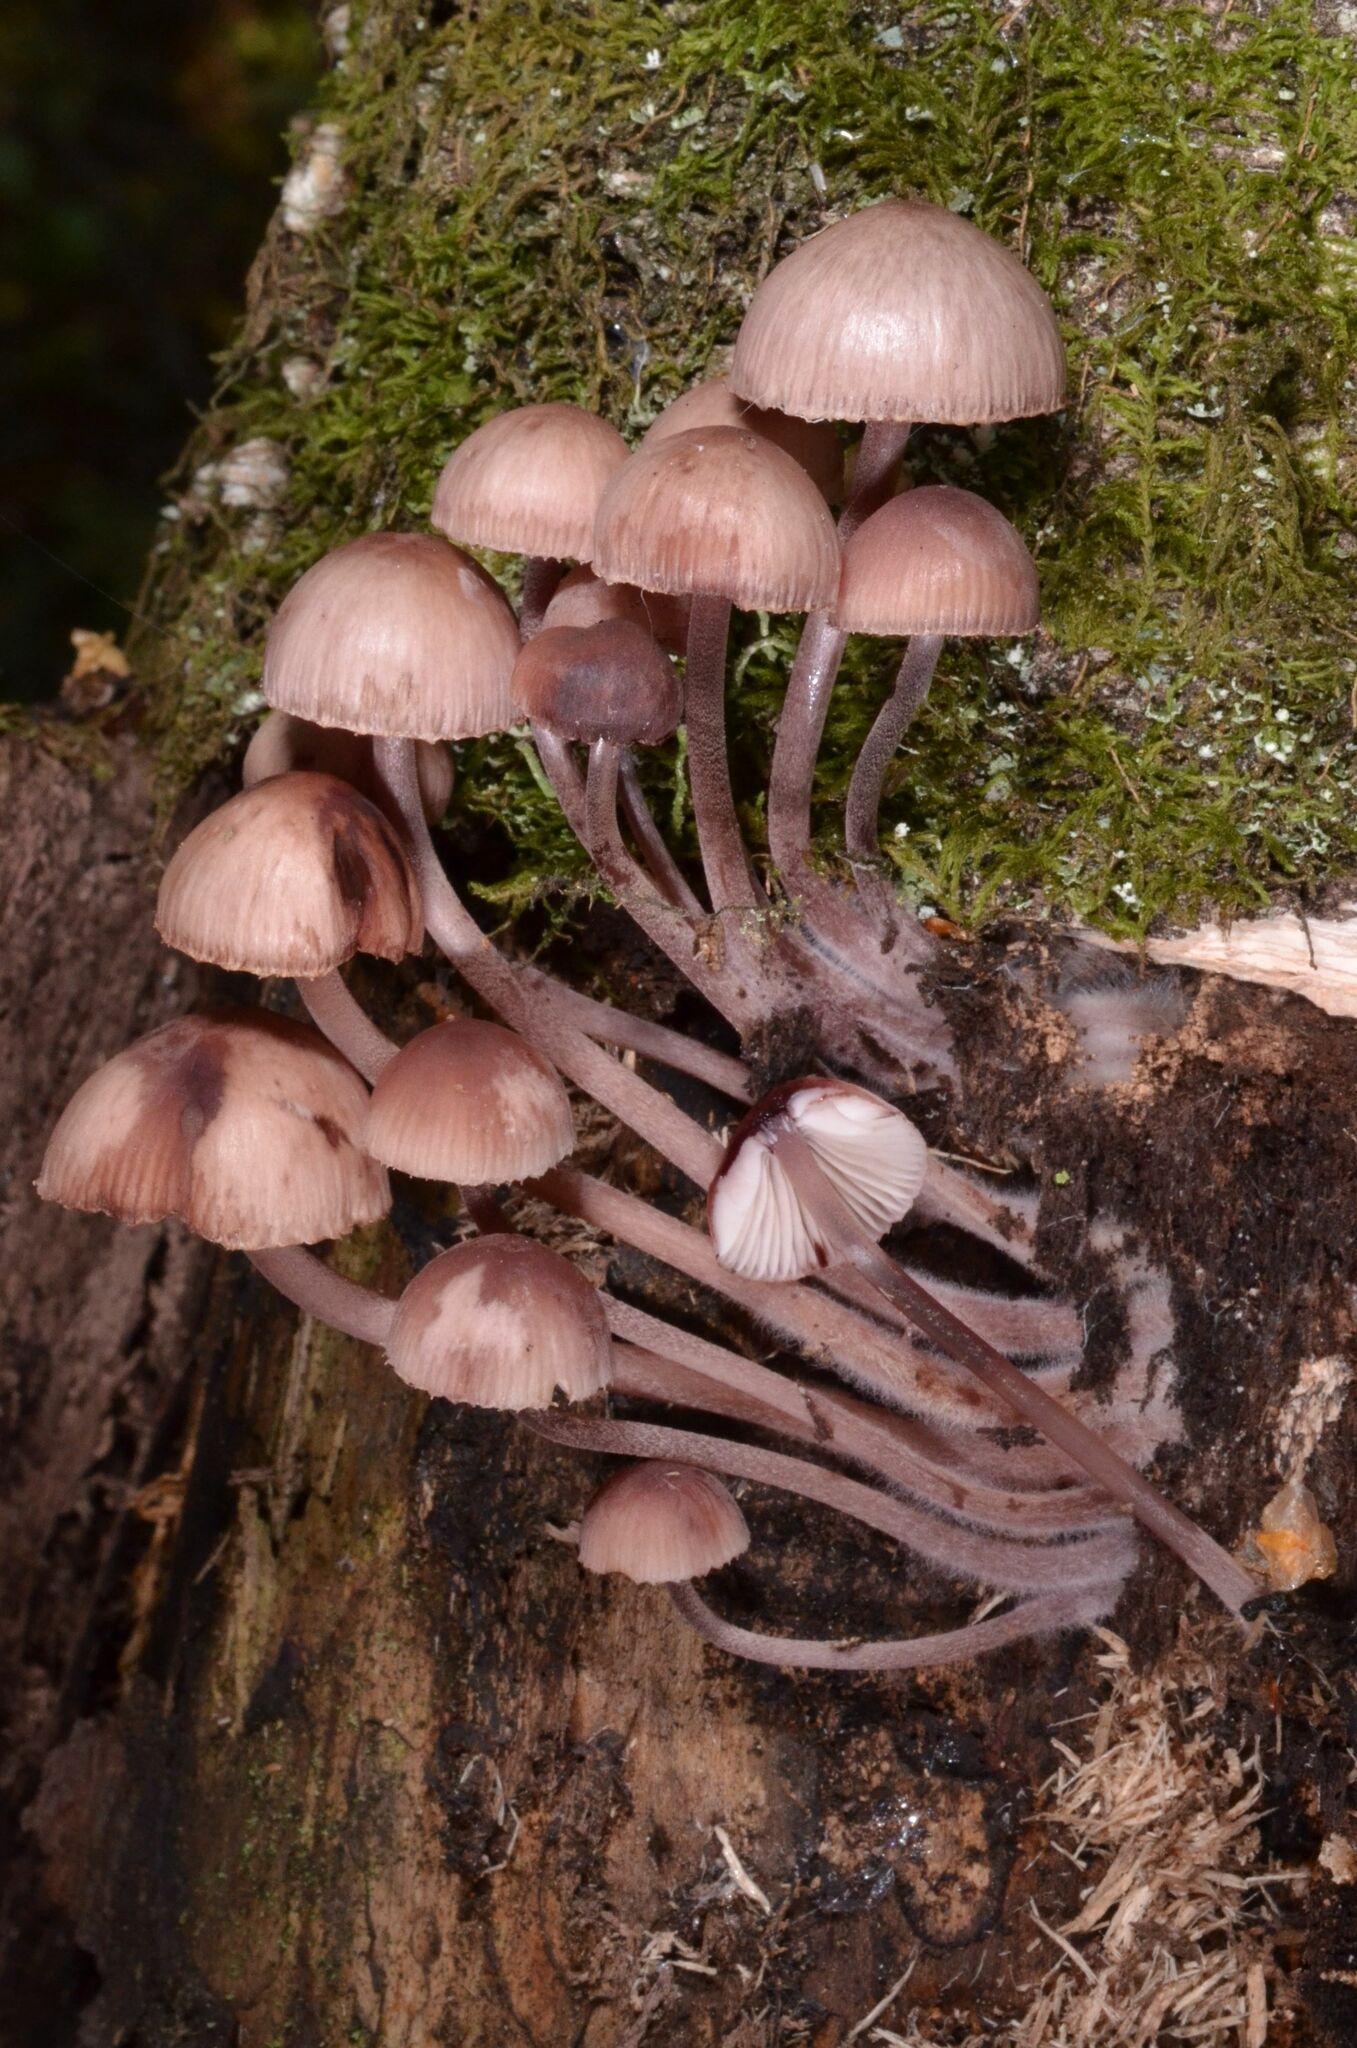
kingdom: Fungi
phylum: Basidiomycota
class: Agaricomycetes
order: Agaricales
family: Mycenaceae
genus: Mycena
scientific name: Mycena haematopus
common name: Burgundydrop bonnet
